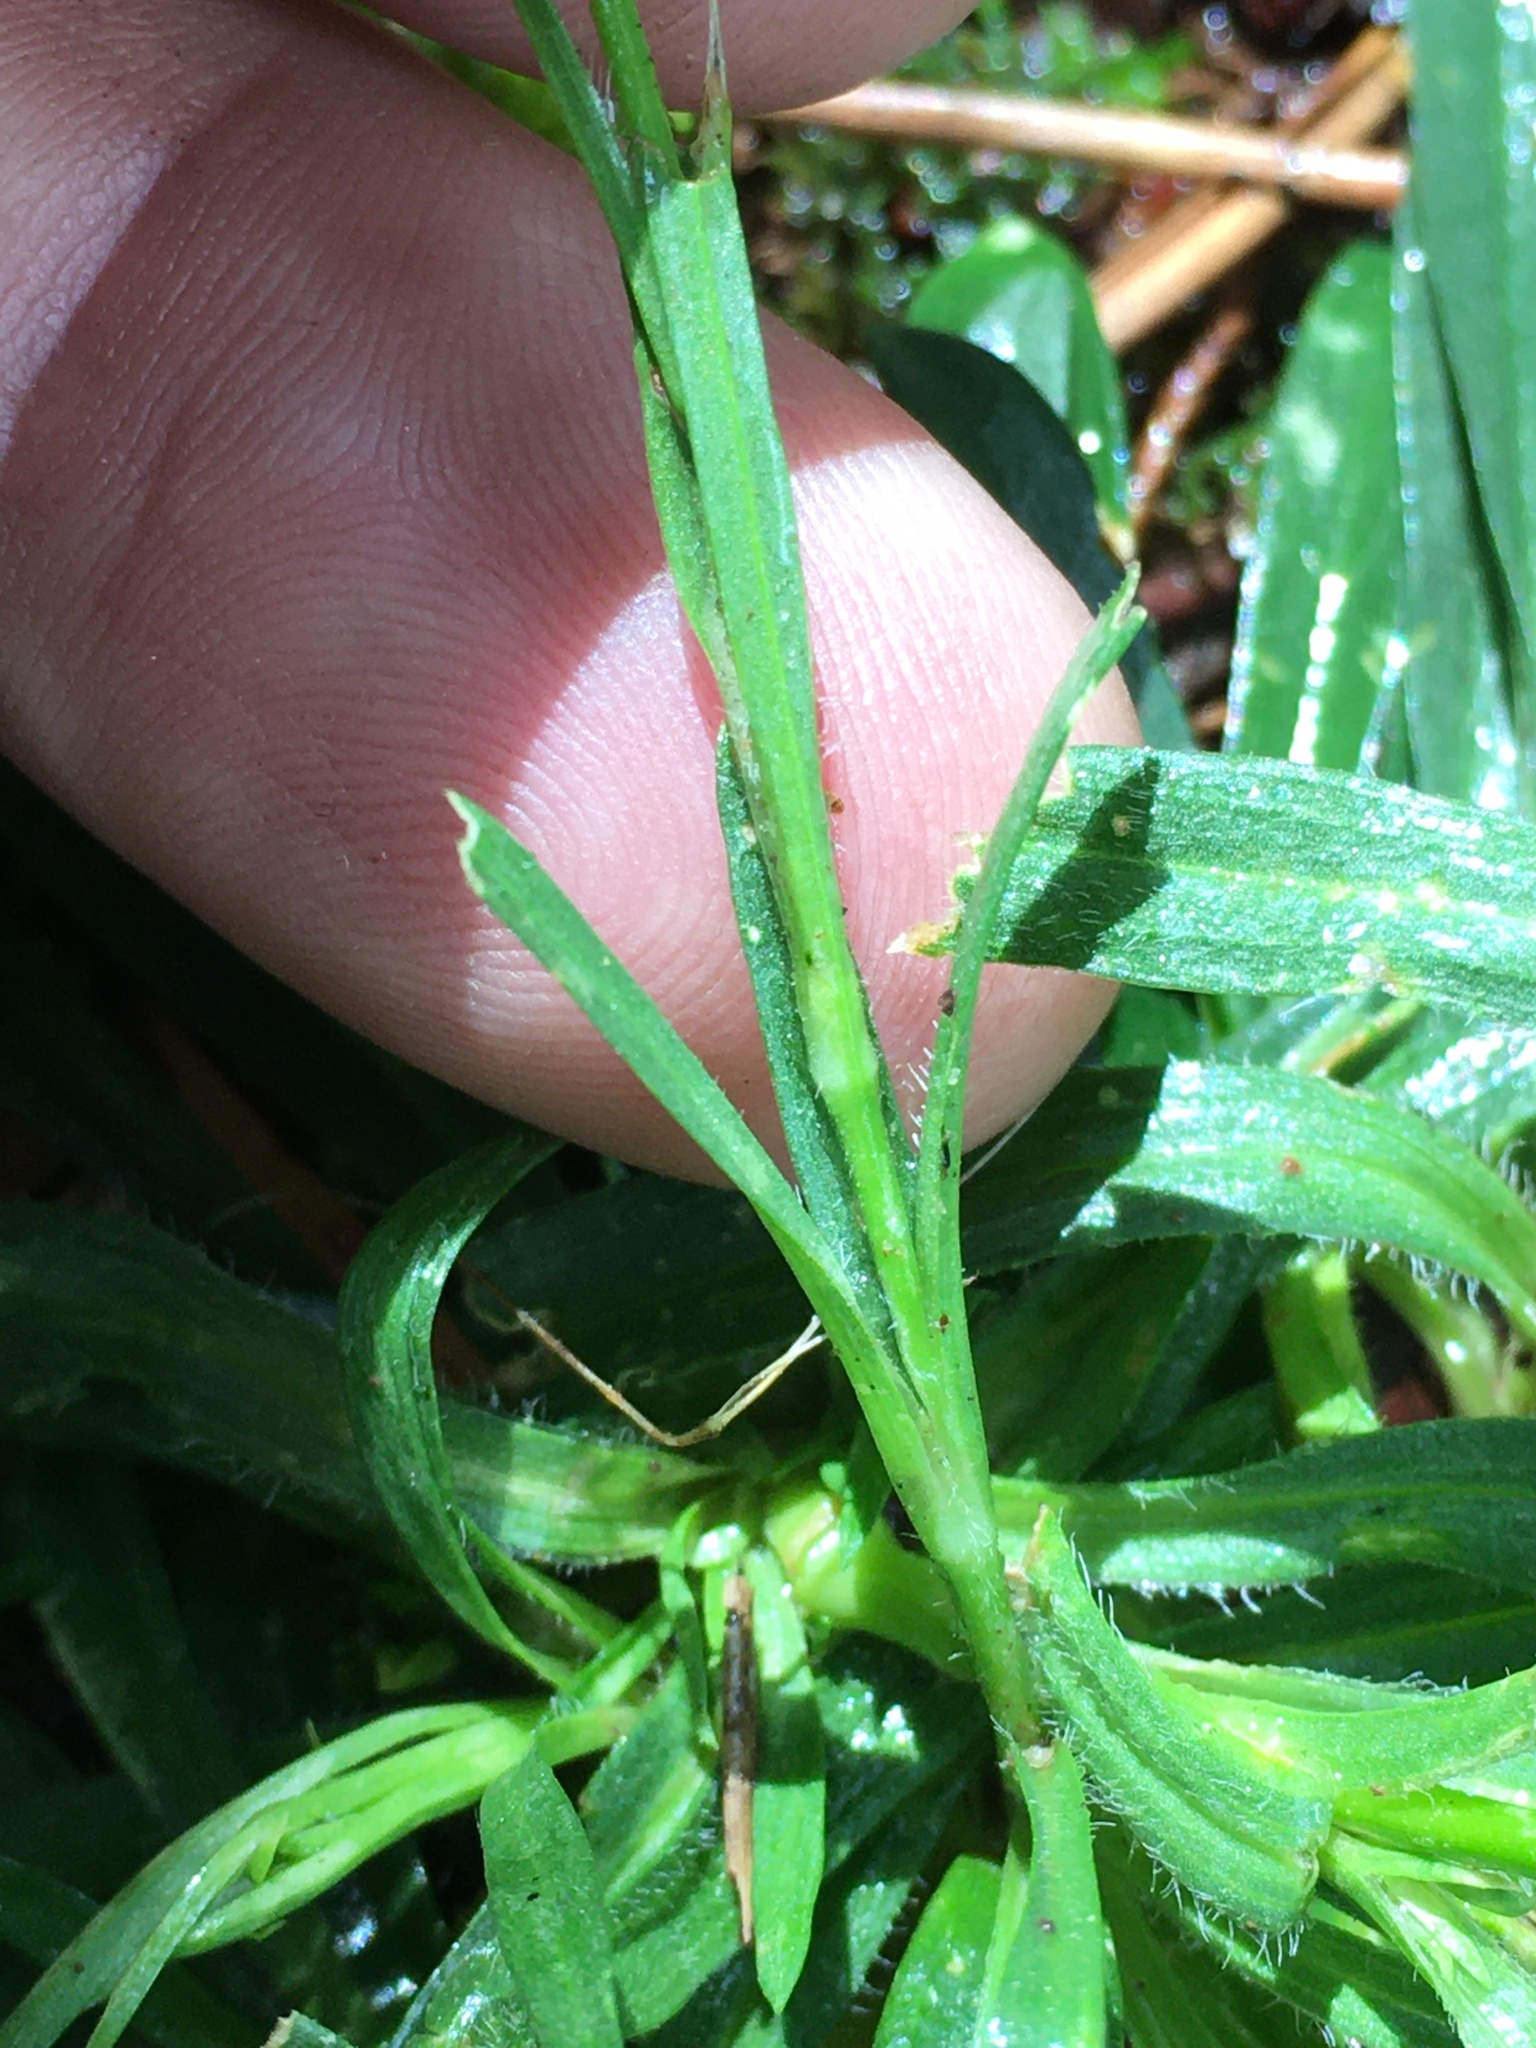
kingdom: Plantae
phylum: Tracheophyta
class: Magnoliopsida
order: Caryophyllales
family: Caryophyllaceae
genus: Dianthus
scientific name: Dianthus armeria
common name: Deptford pink
